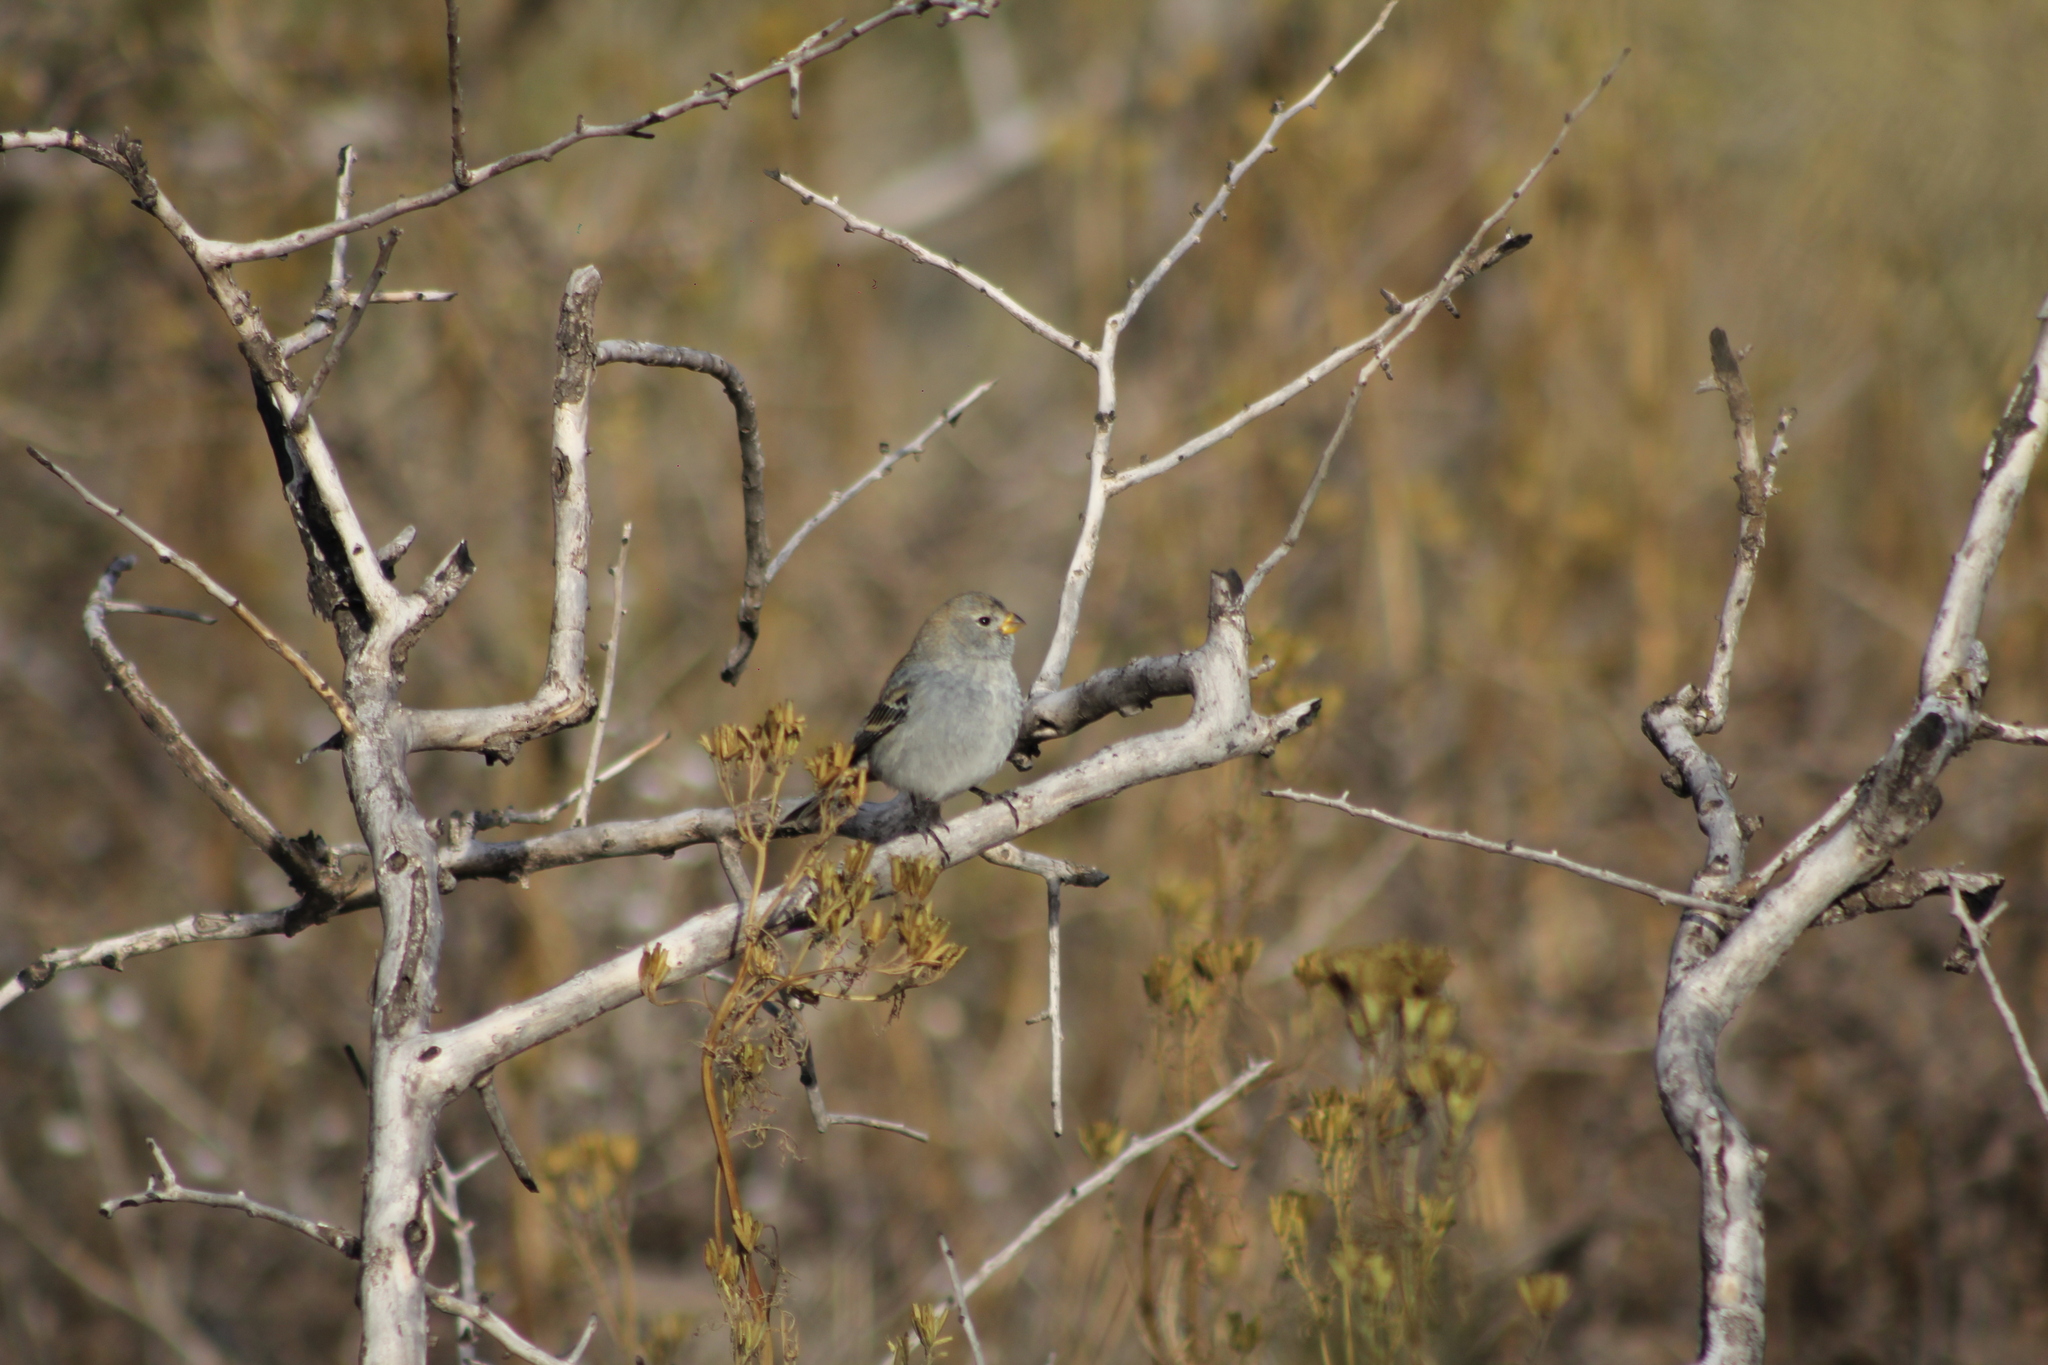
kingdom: Animalia
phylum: Chordata
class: Aves
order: Passeriformes
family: Thraupidae
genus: Catamenia
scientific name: Catamenia analis
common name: Band-tailed seedeater
